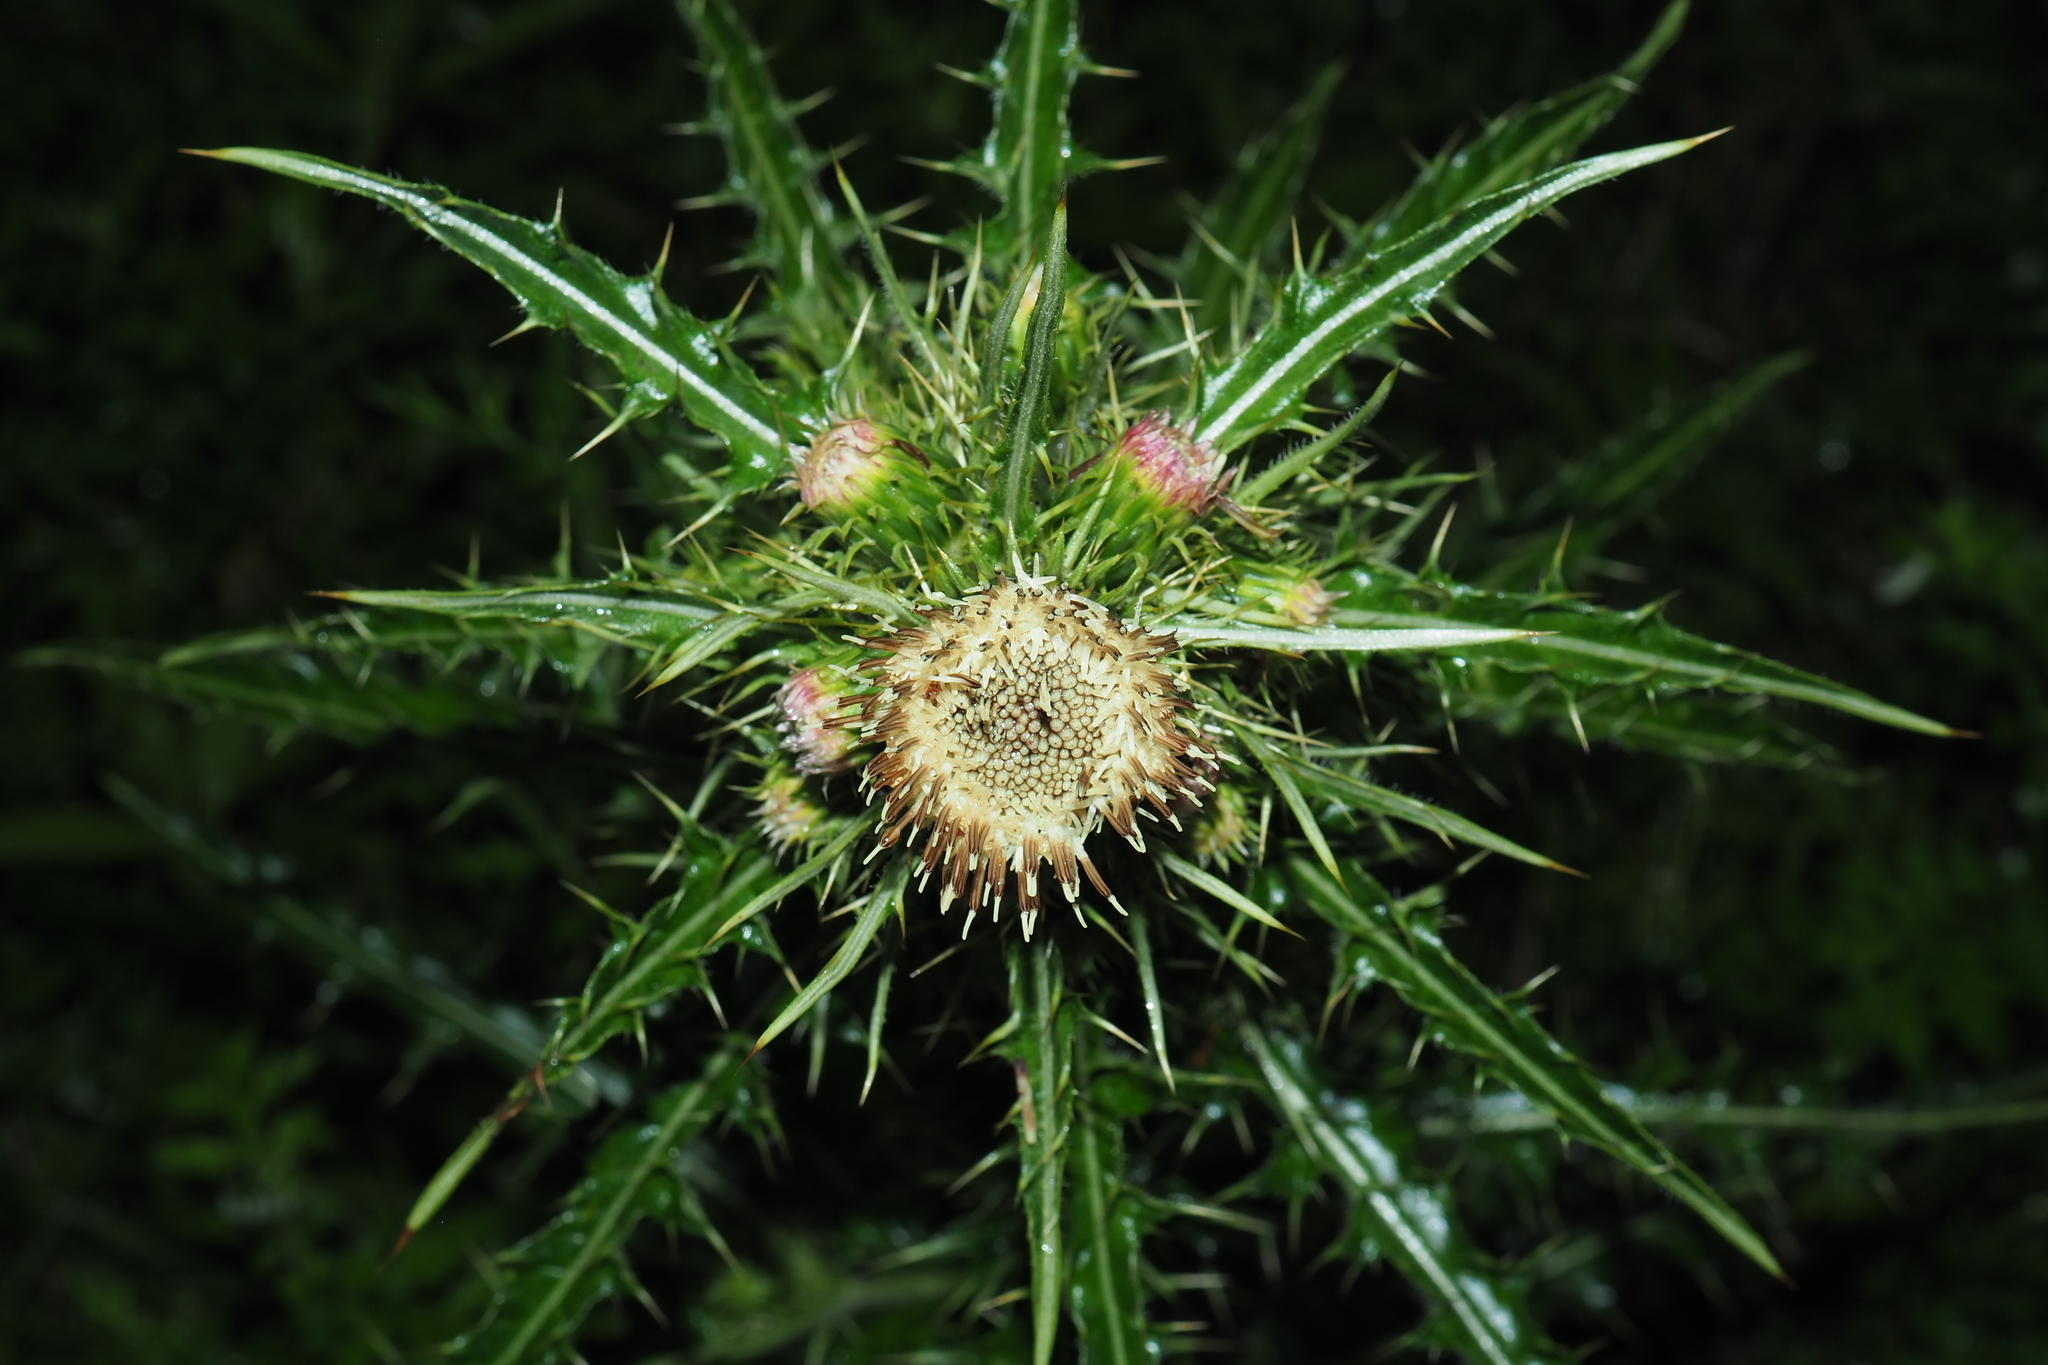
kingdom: Plantae
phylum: Tracheophyta
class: Magnoliopsida
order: Asterales
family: Asteraceae
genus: Cirsium
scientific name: Cirsium arisanense
